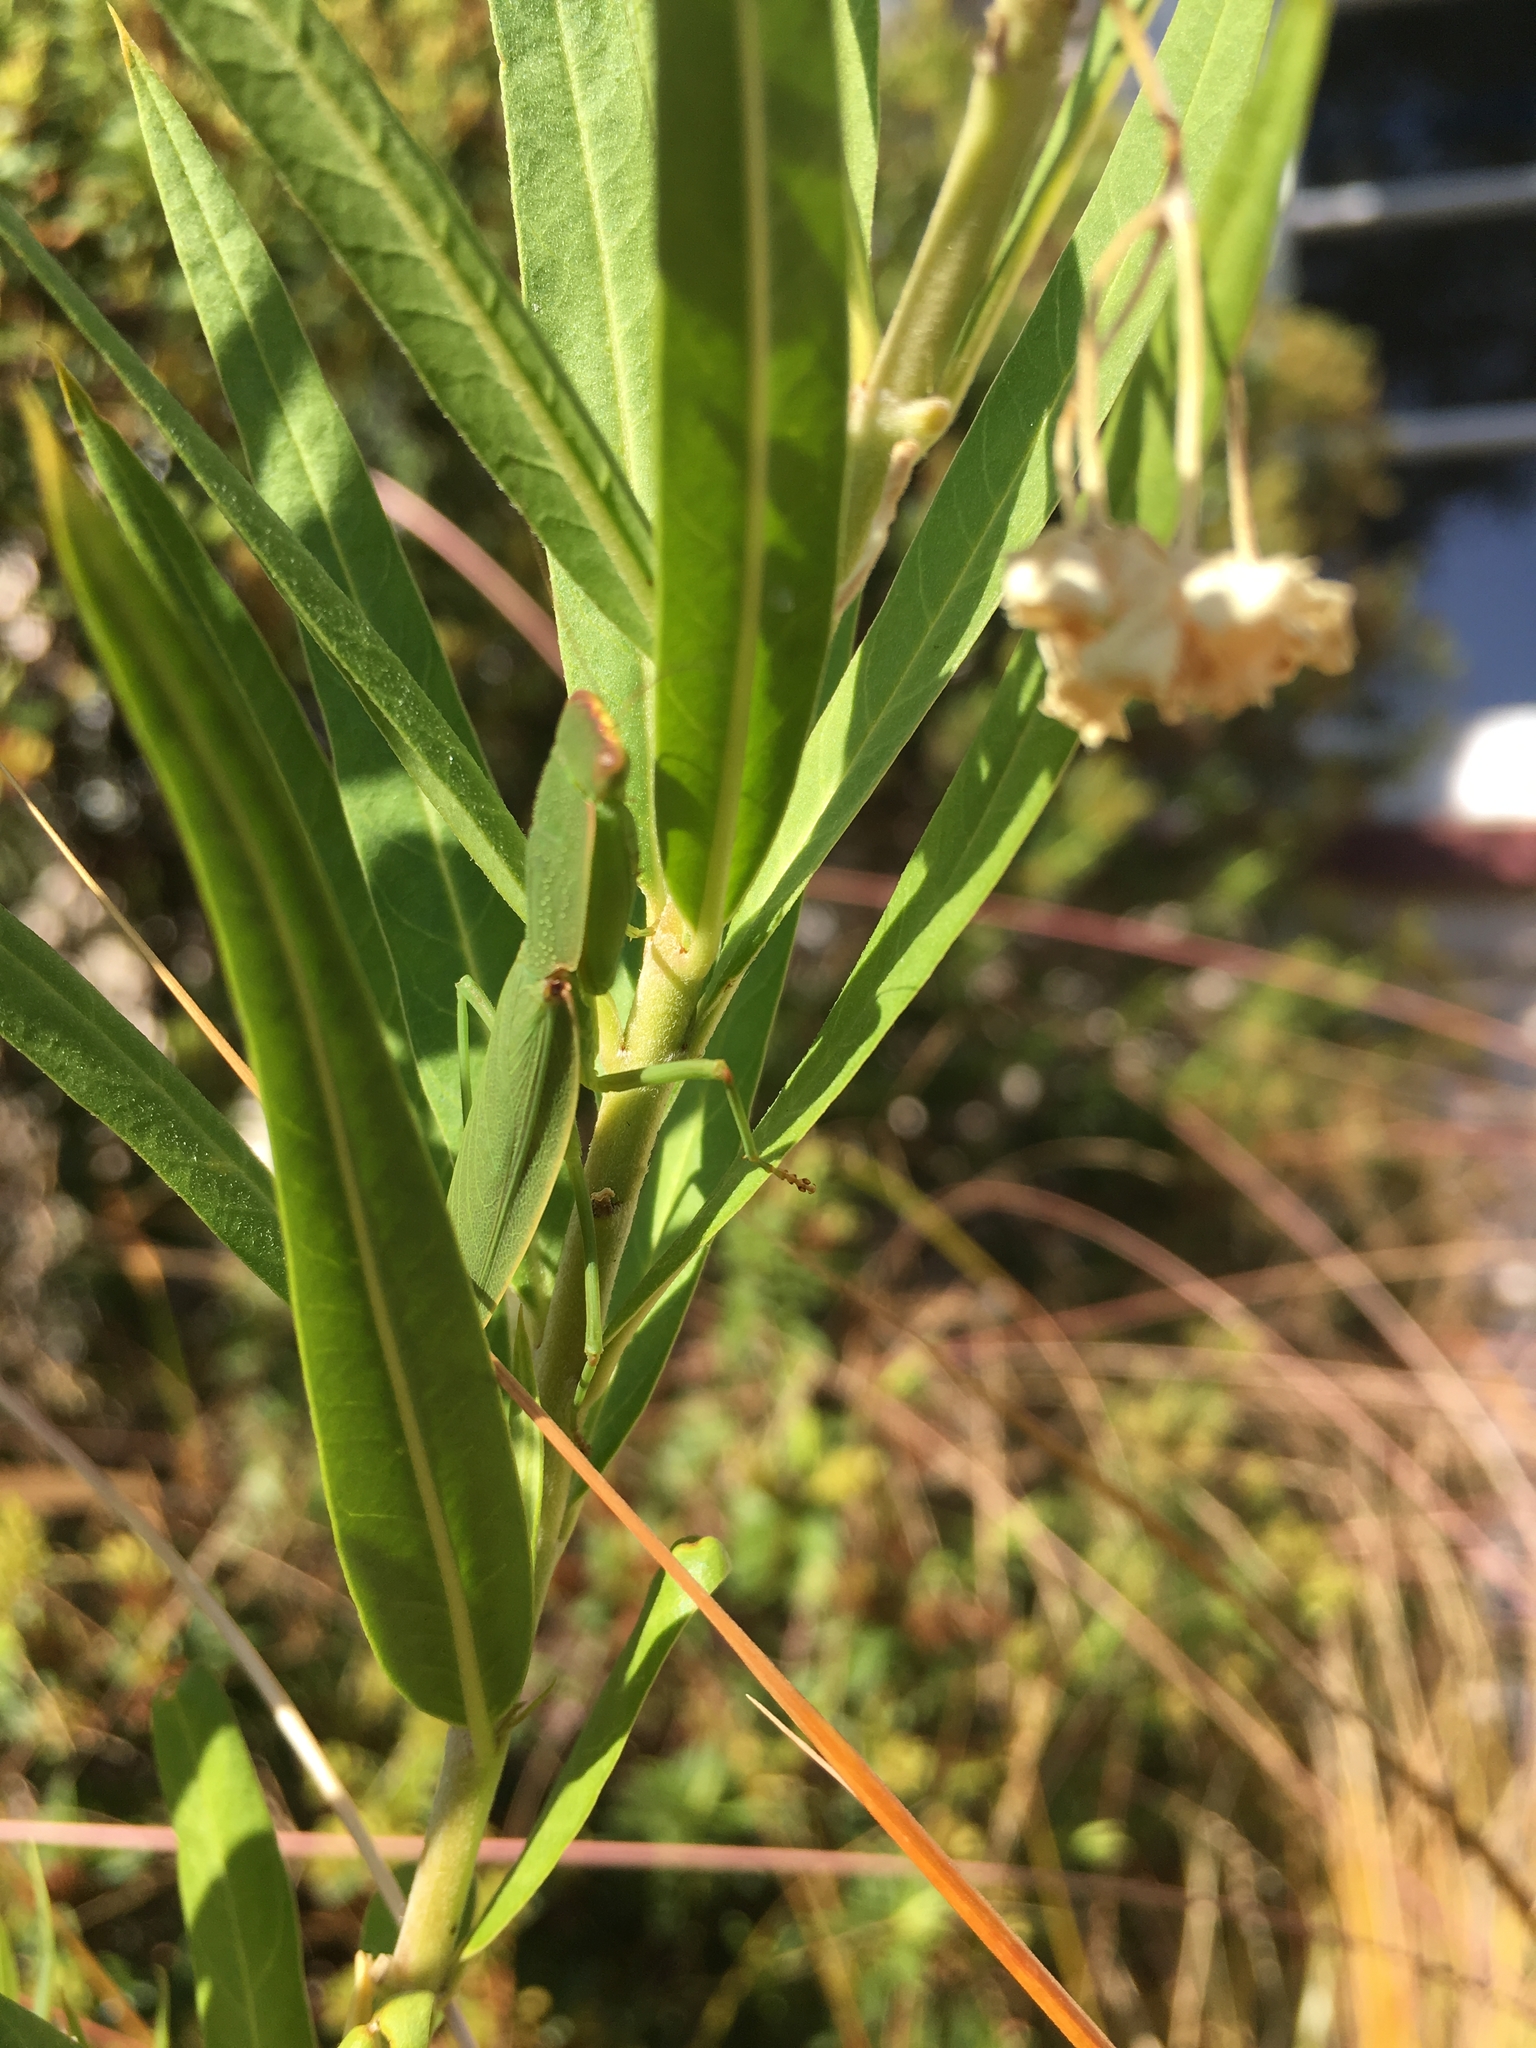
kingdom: Animalia
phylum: Arthropoda
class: Insecta
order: Mantodea
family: Mantidae
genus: Orthodera
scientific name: Orthodera novaezealandiae
